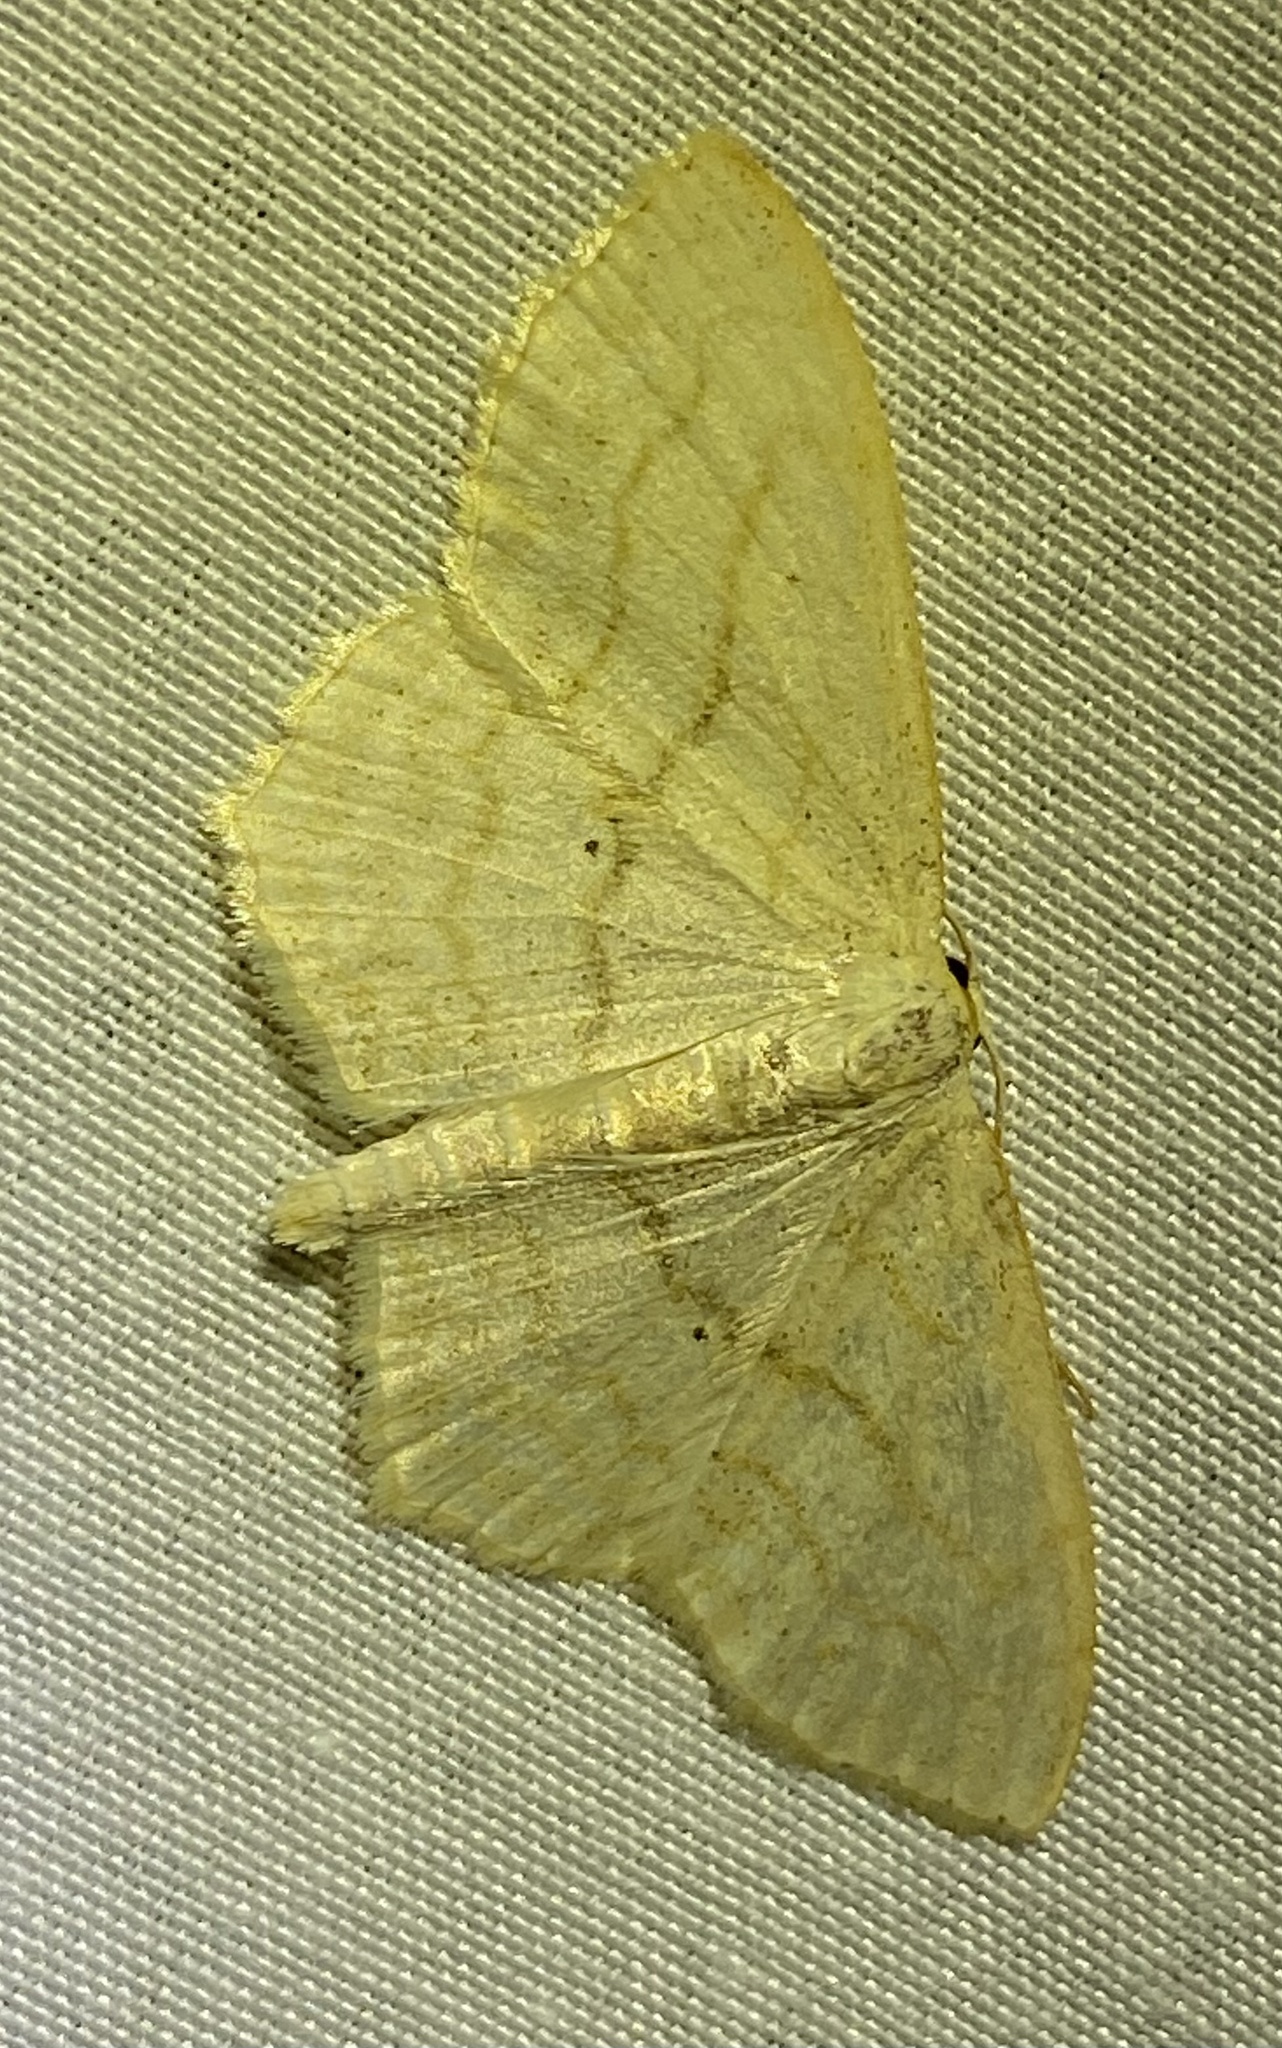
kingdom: Animalia
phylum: Arthropoda
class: Insecta
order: Lepidoptera
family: Geometridae
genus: Scopula
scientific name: Scopula limboundata
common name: Large lace border
